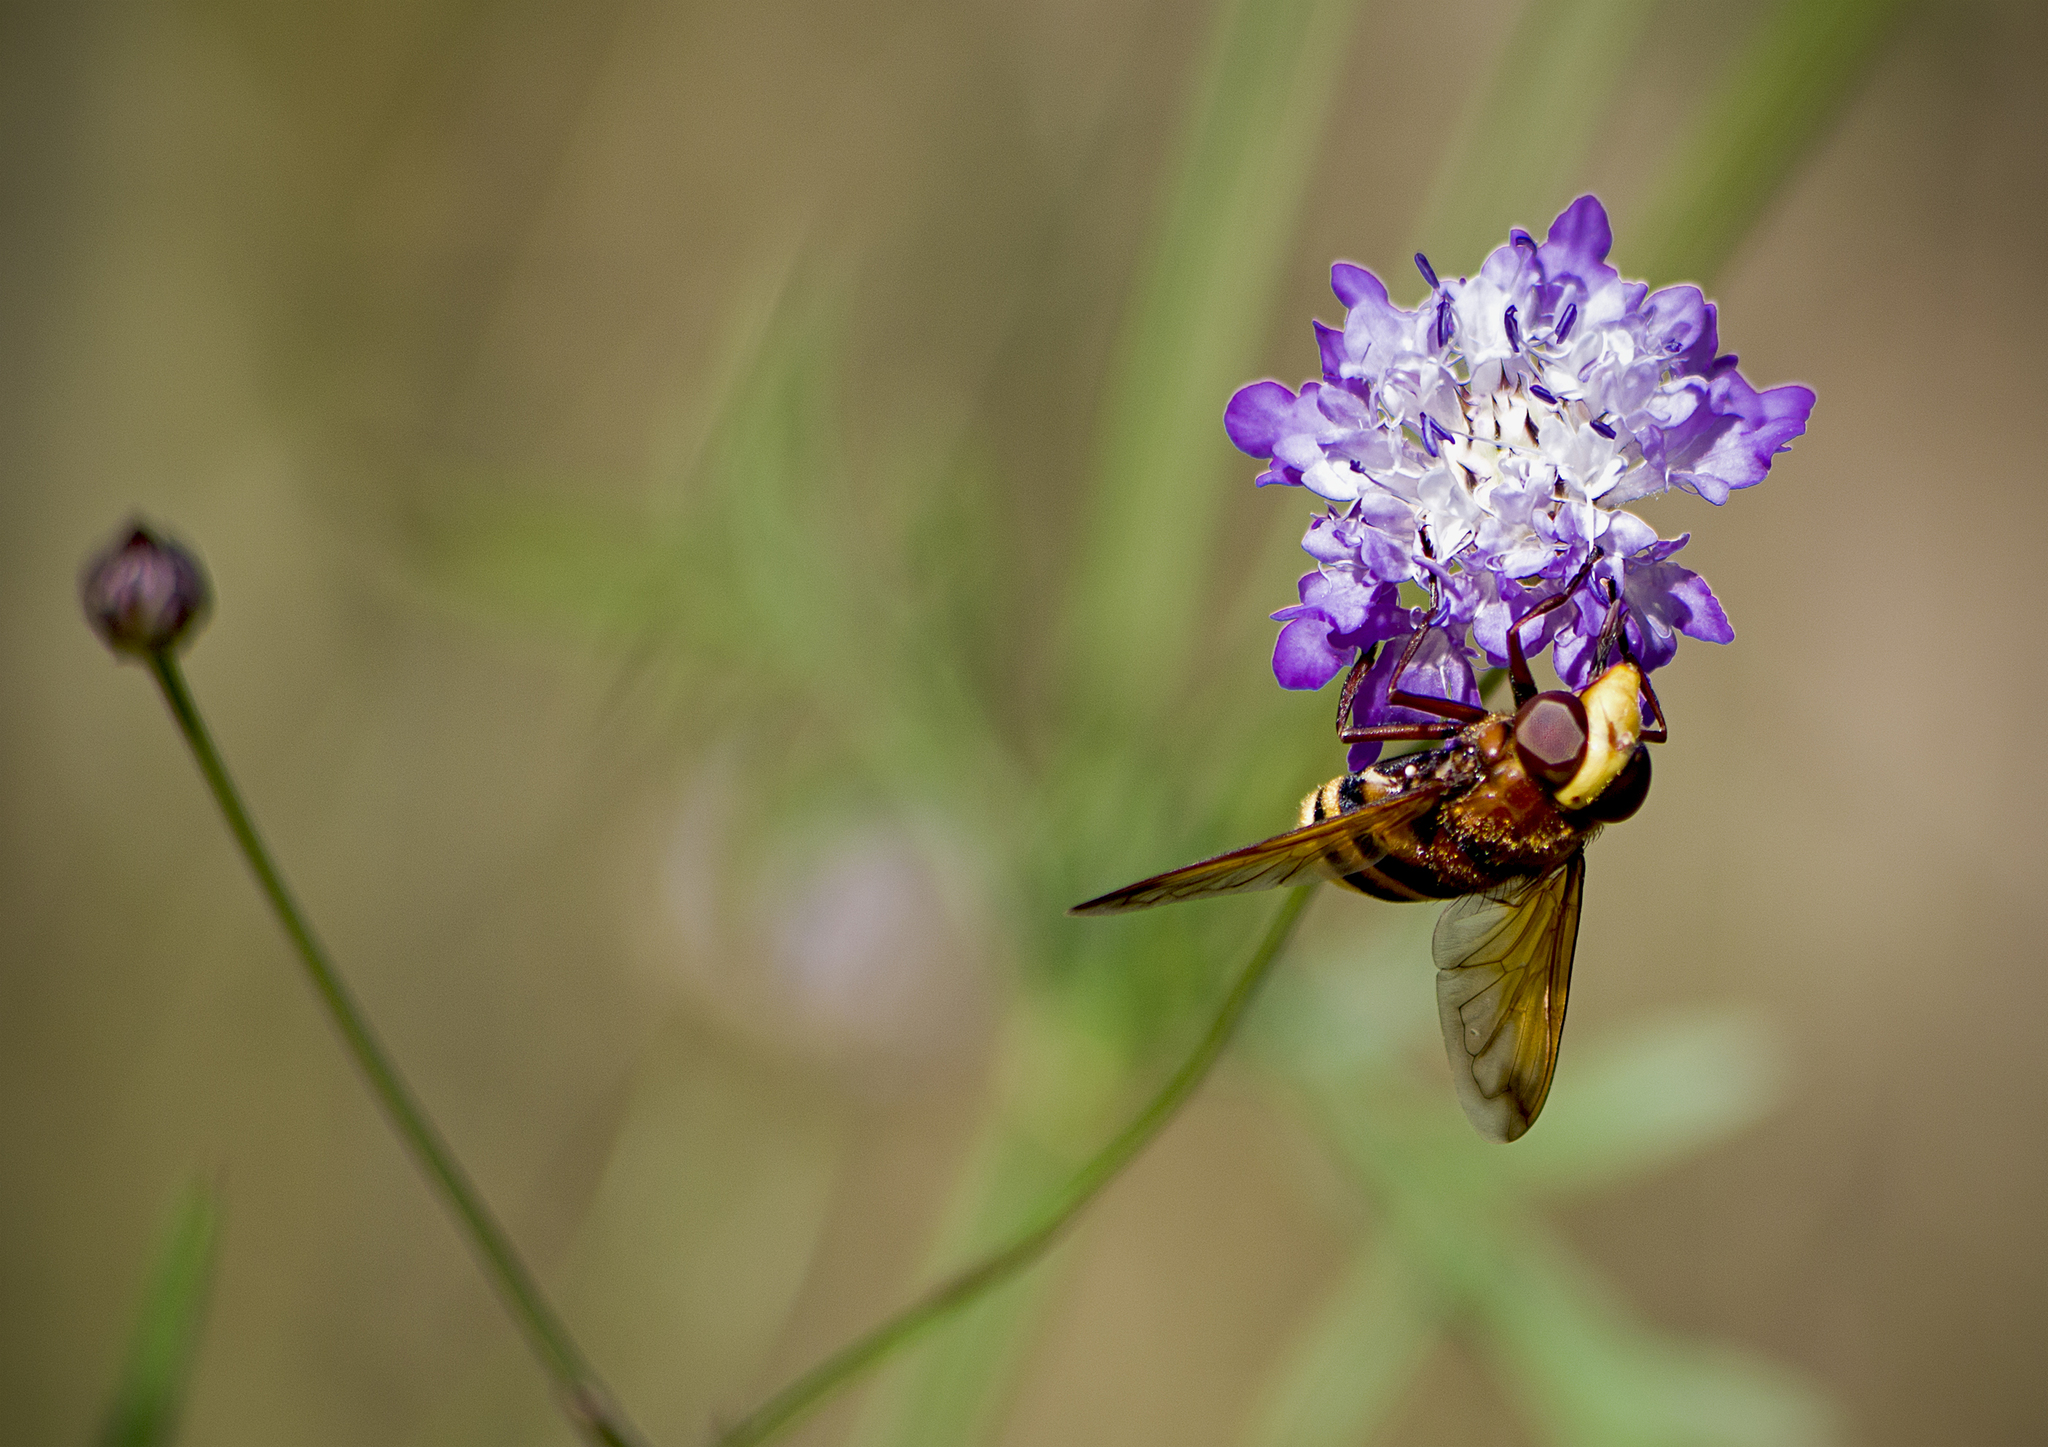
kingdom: Animalia
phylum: Arthropoda
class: Insecta
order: Diptera
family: Syrphidae
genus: Volucella
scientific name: Volucella zonaria
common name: Hornet hoverfly
